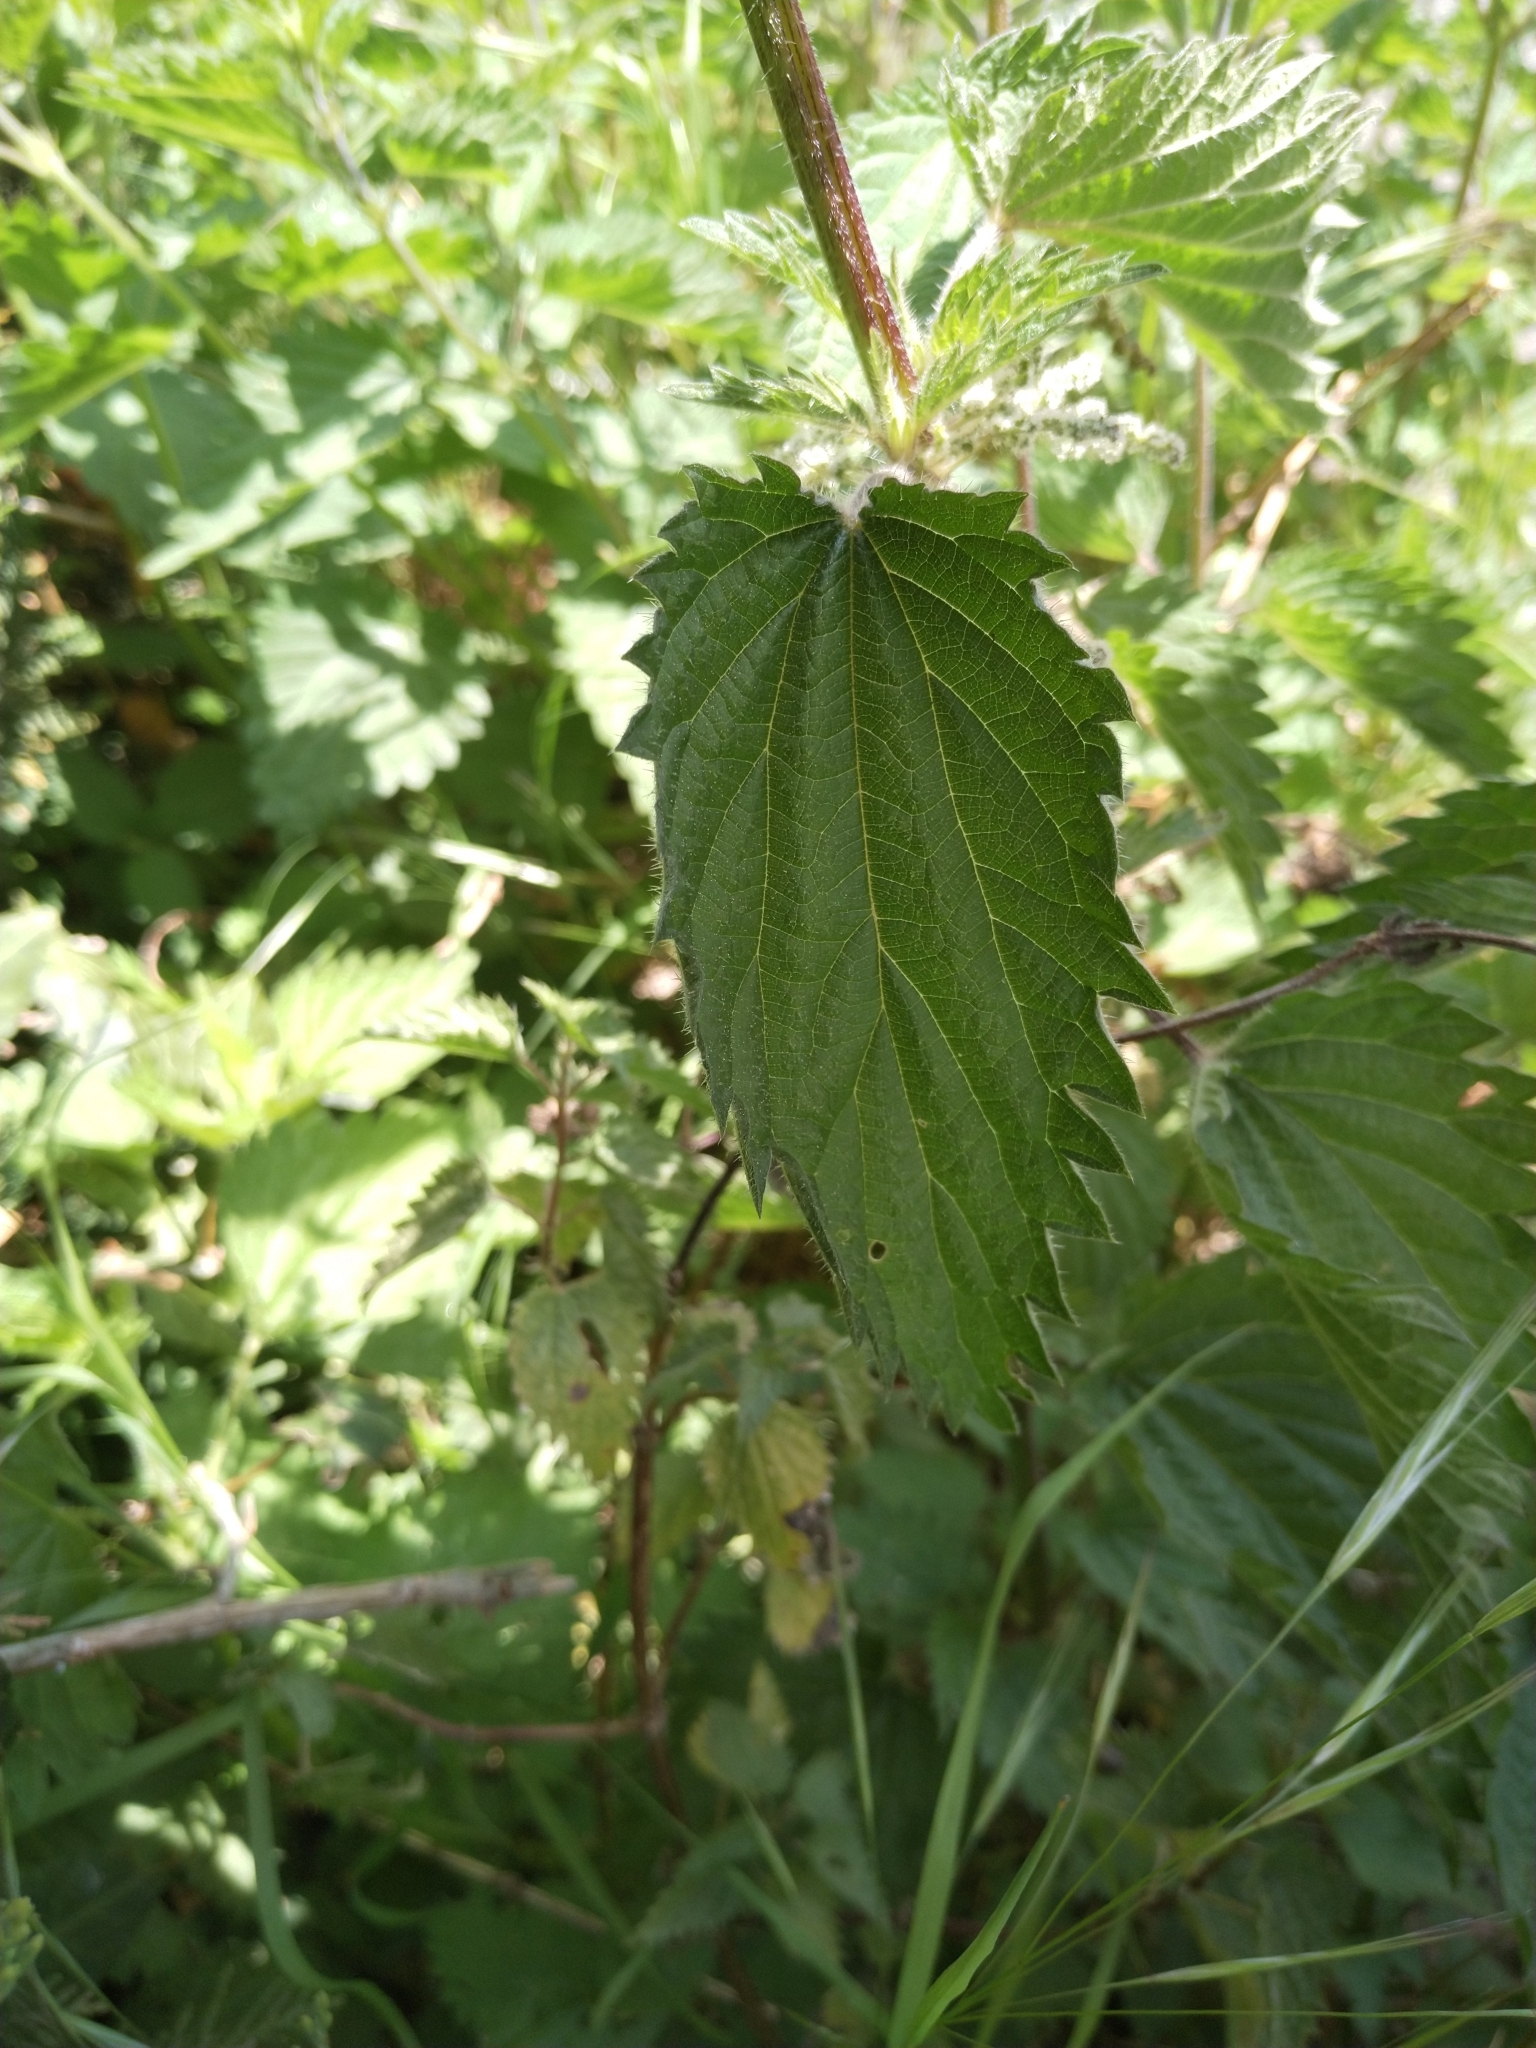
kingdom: Plantae
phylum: Tracheophyta
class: Magnoliopsida
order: Rosales
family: Urticaceae
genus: Urtica
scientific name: Urtica dioica
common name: Common nettle
